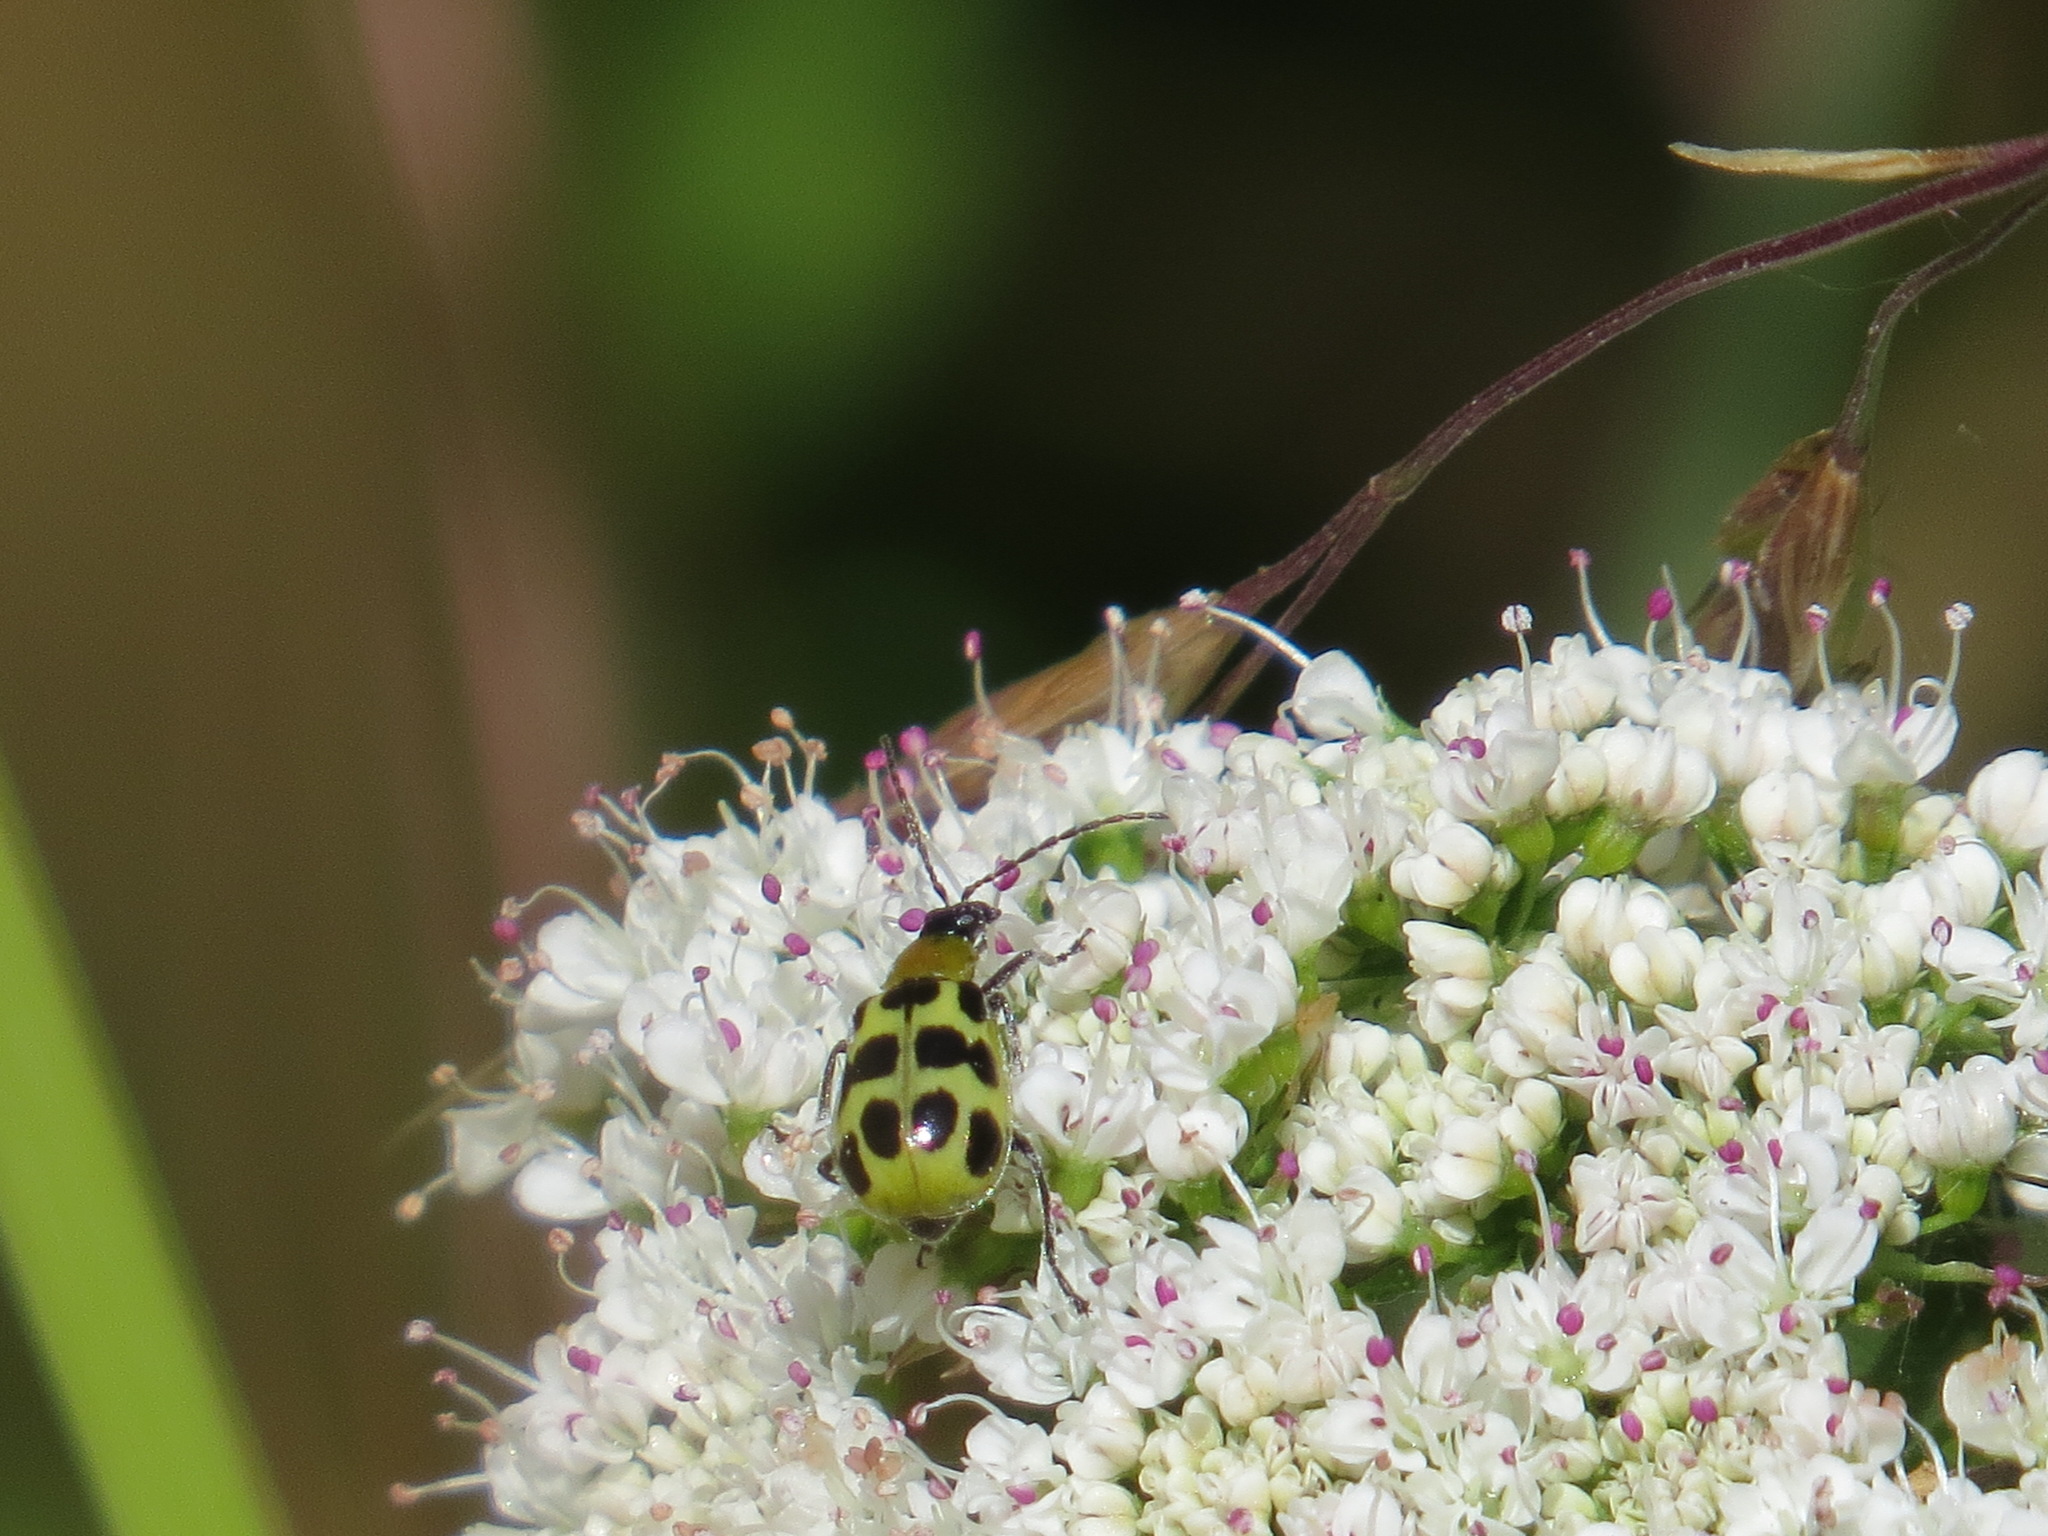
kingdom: Animalia
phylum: Arthropoda
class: Insecta
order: Coleoptera
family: Chrysomelidae
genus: Diabrotica
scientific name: Diabrotica undecimpunctata
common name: Spotted cucumber beetle
